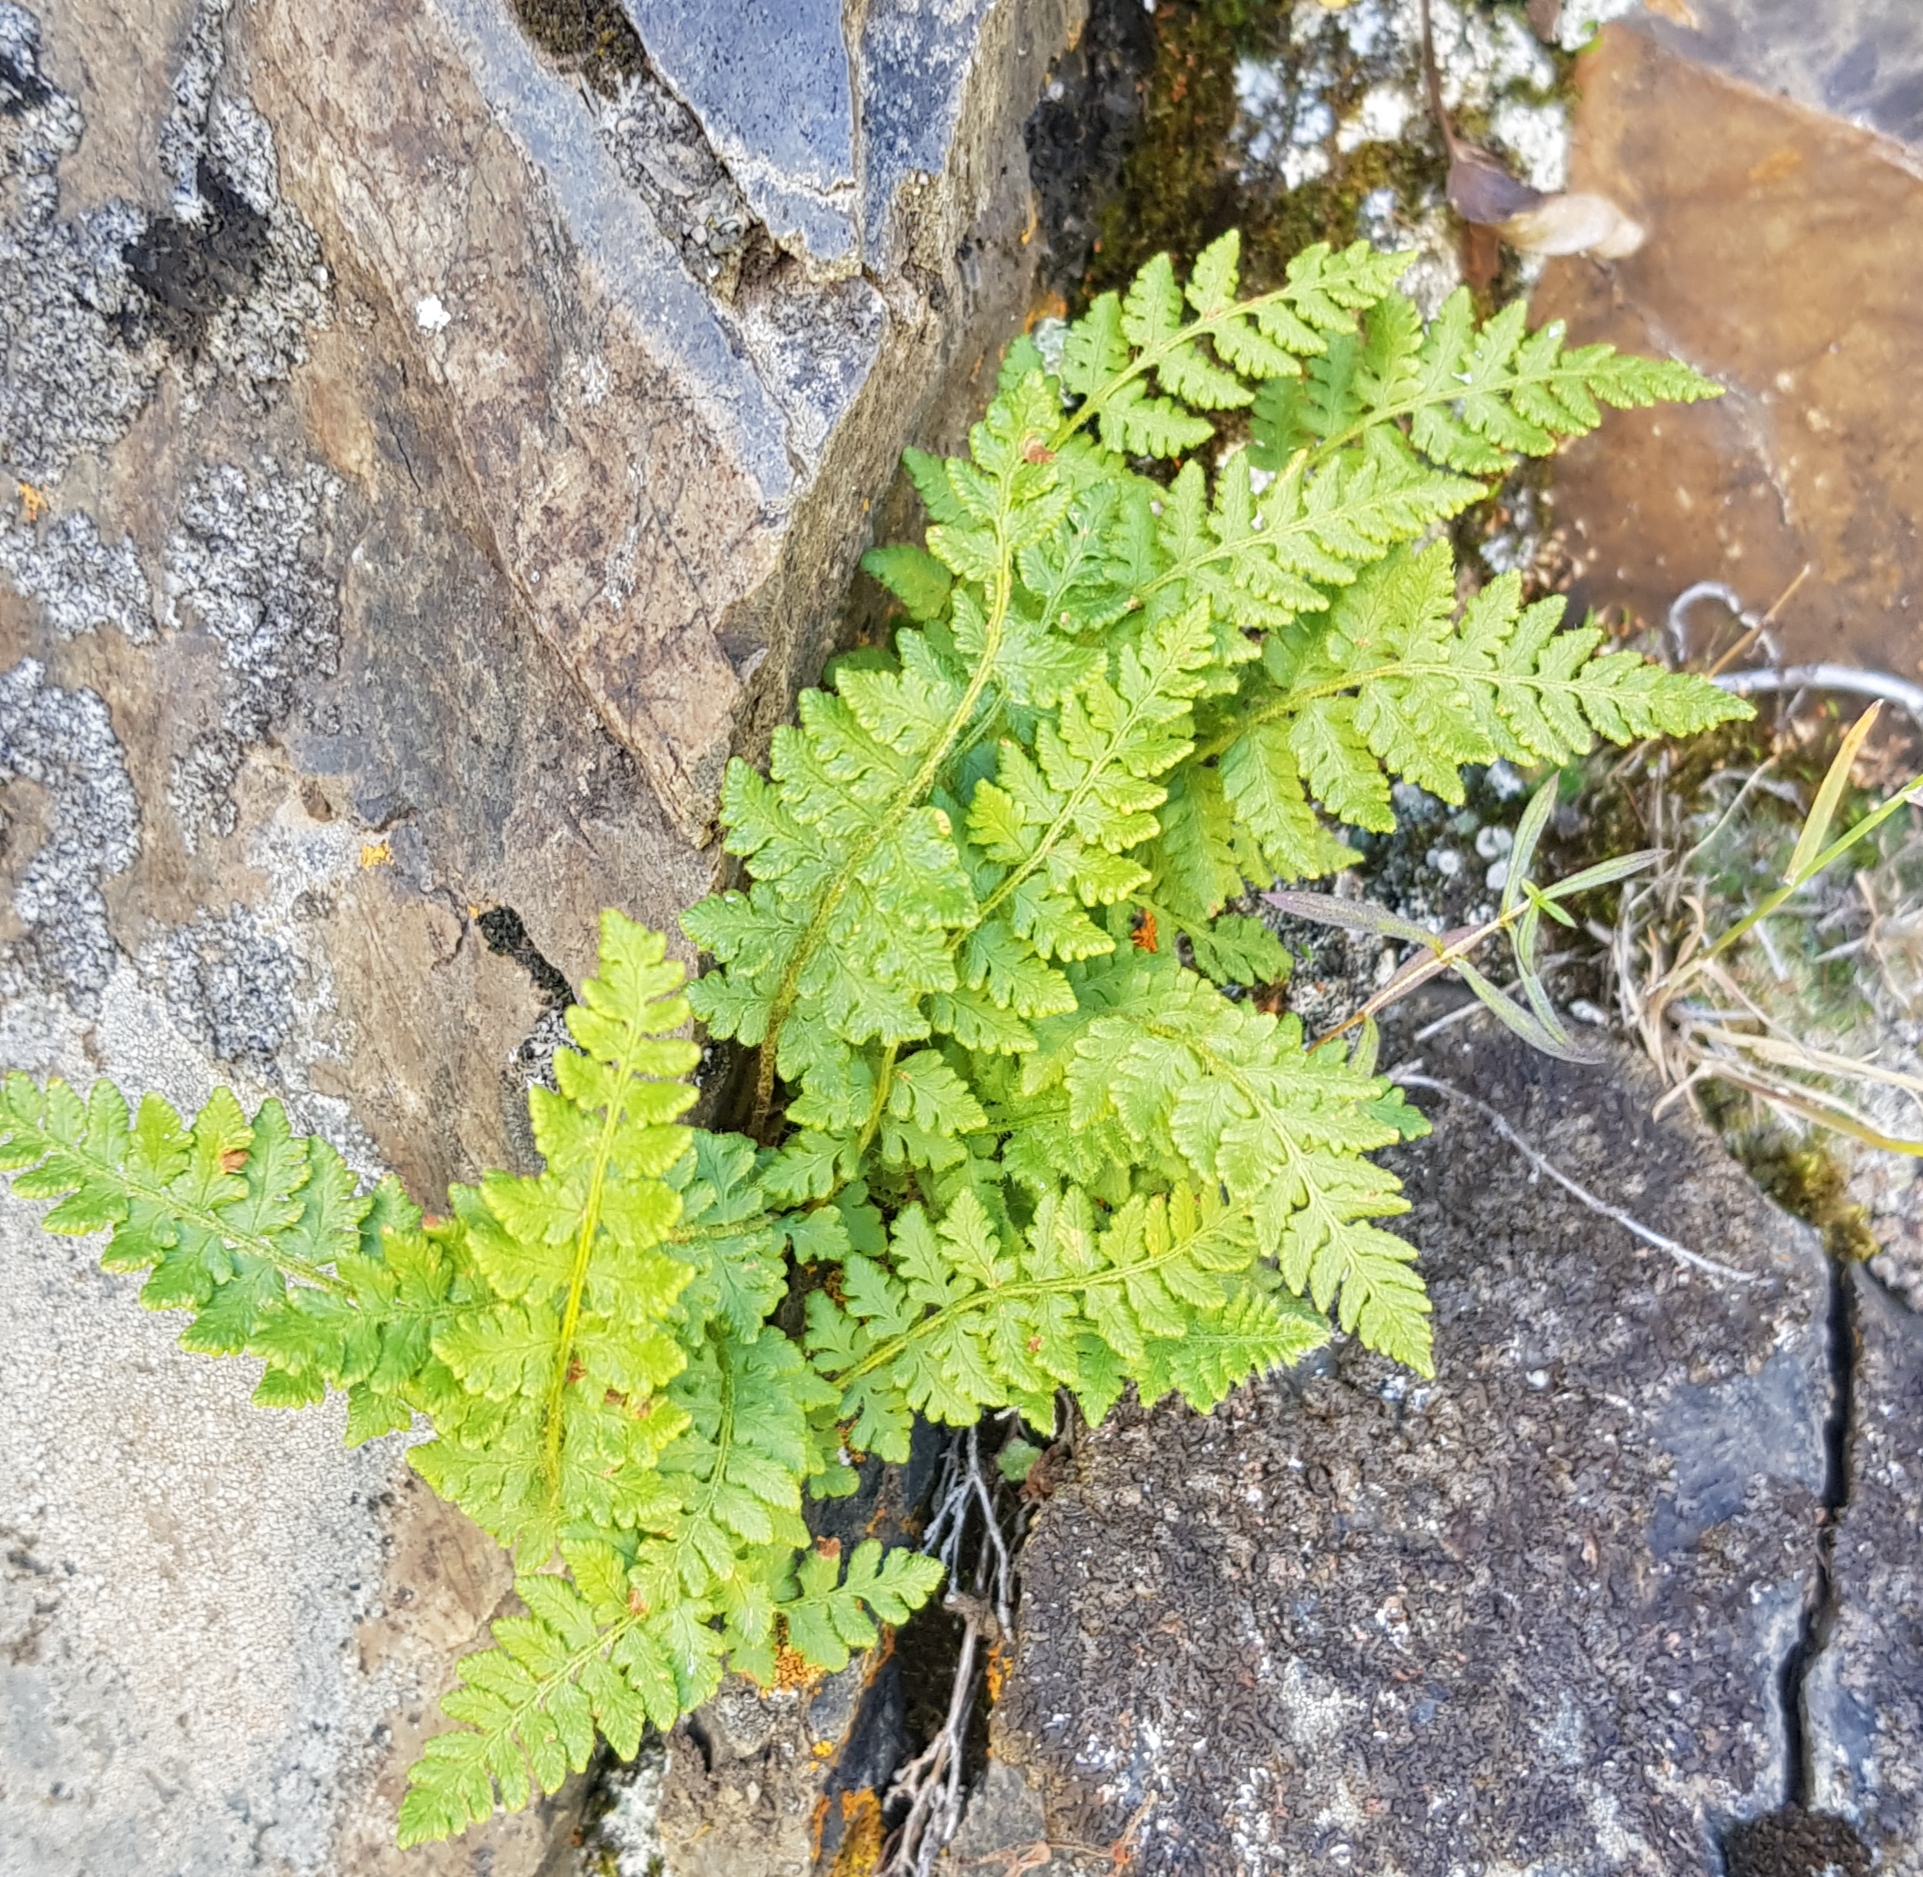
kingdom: Plantae
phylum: Tracheophyta
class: Polypodiopsida
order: Polypodiales
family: Woodsiaceae
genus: Woodsia
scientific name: Woodsia ilvensis
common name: Fragrant woodsia
